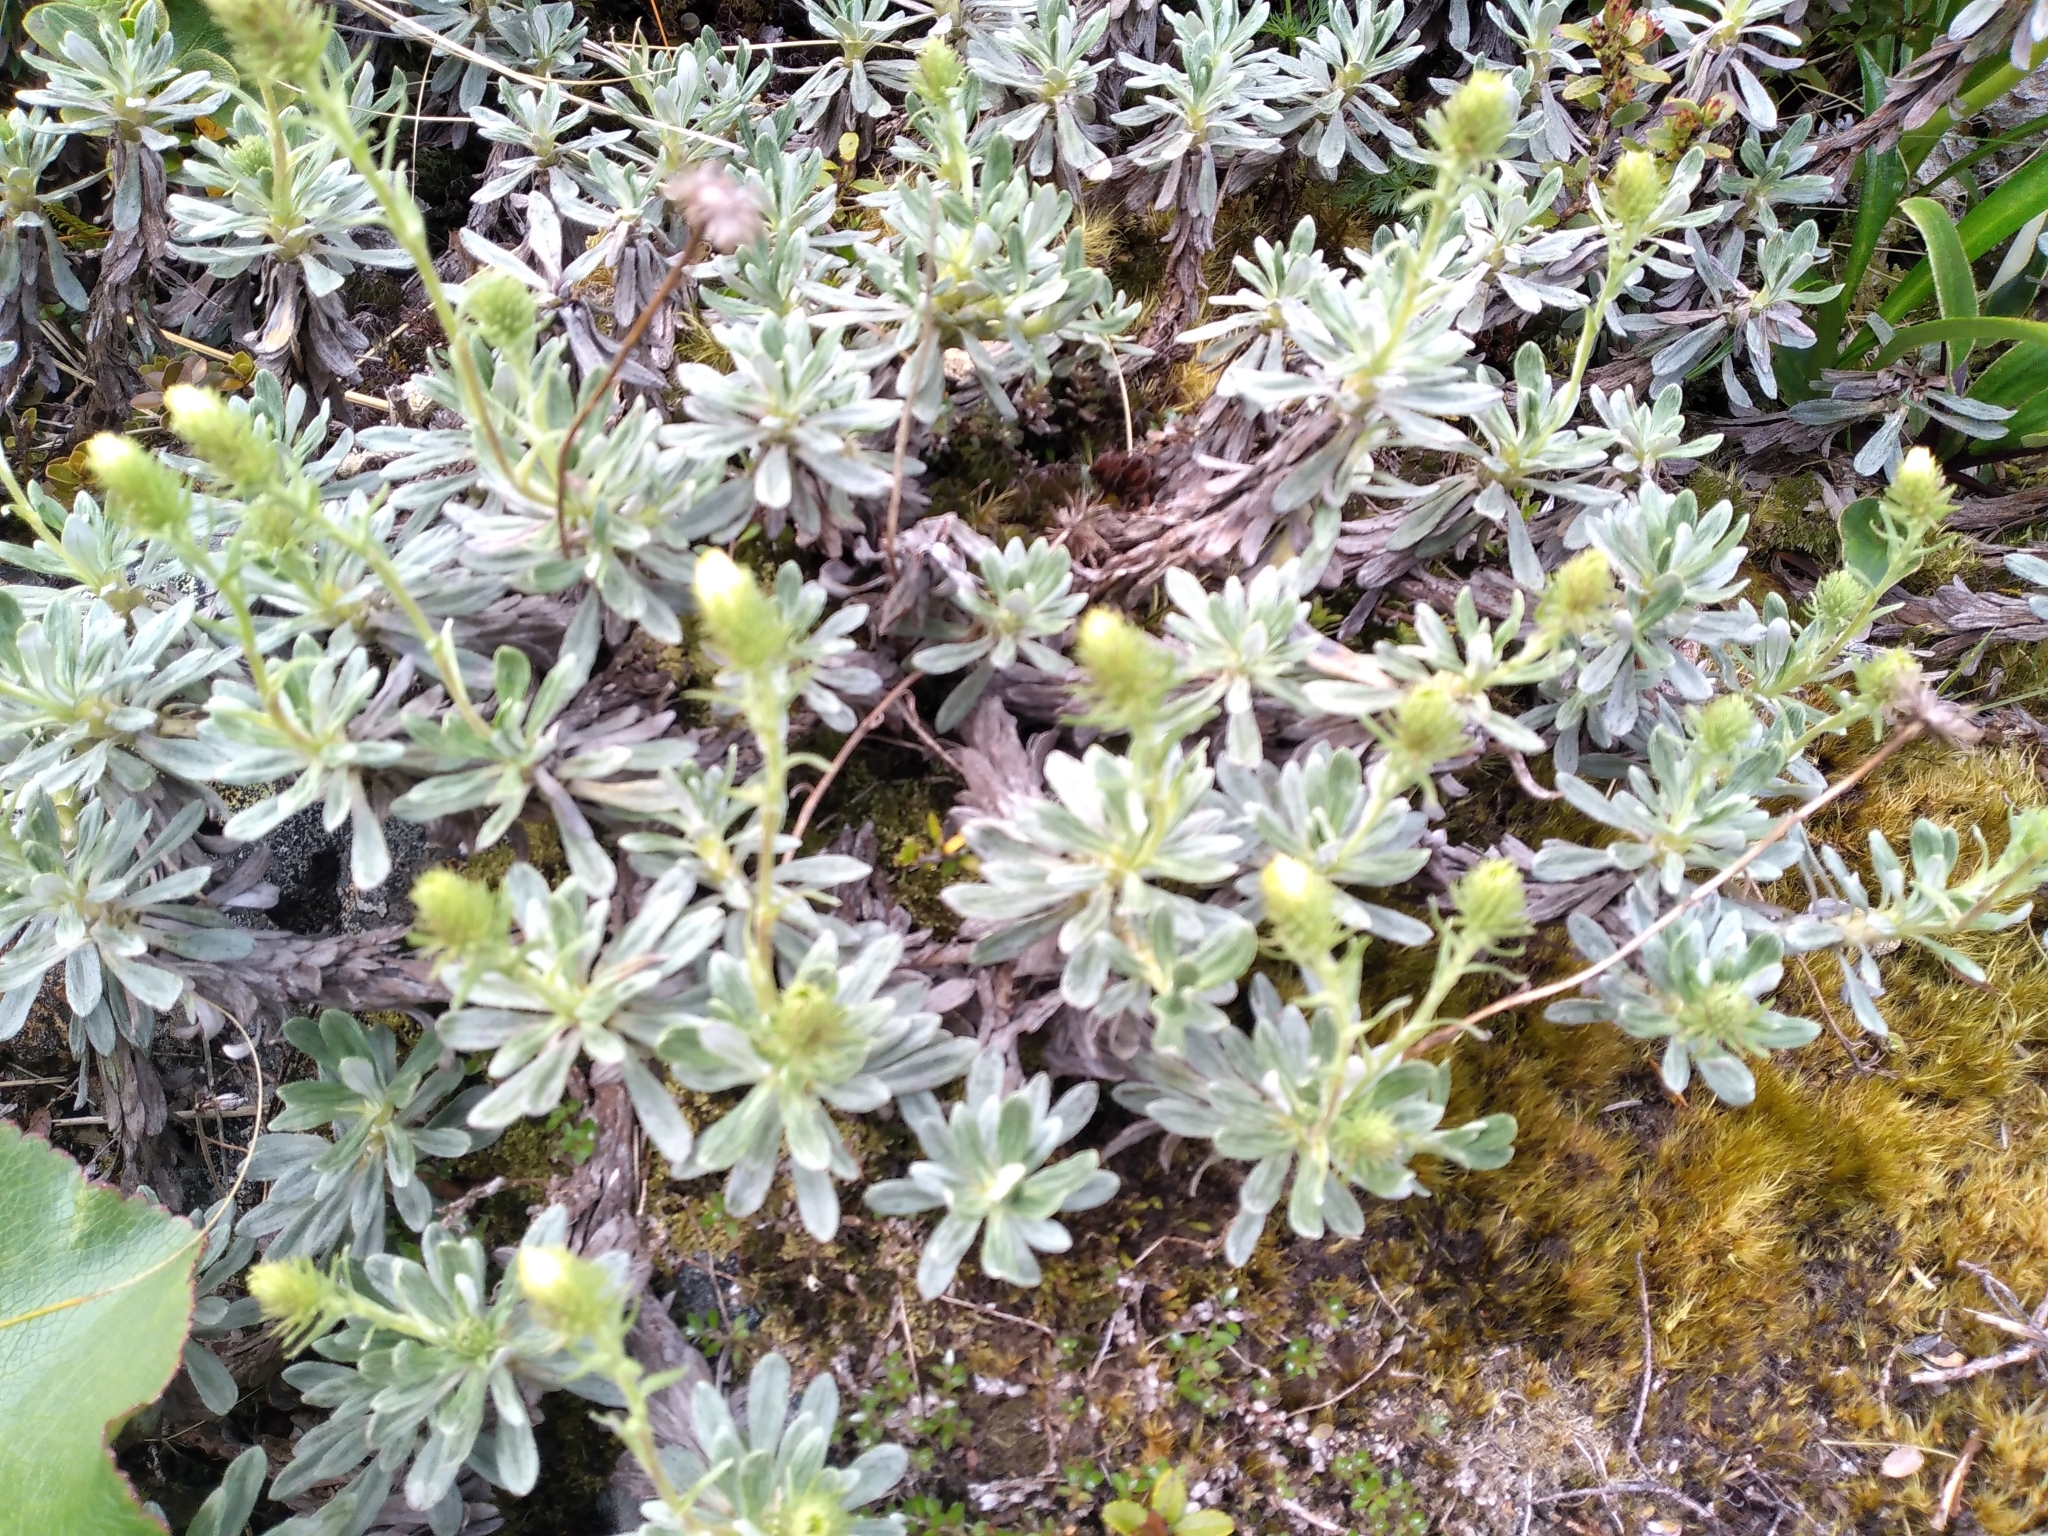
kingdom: Plantae
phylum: Tracheophyta
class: Magnoliopsida
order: Asterales
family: Asteraceae
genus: Celmisia
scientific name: Celmisia discolor
